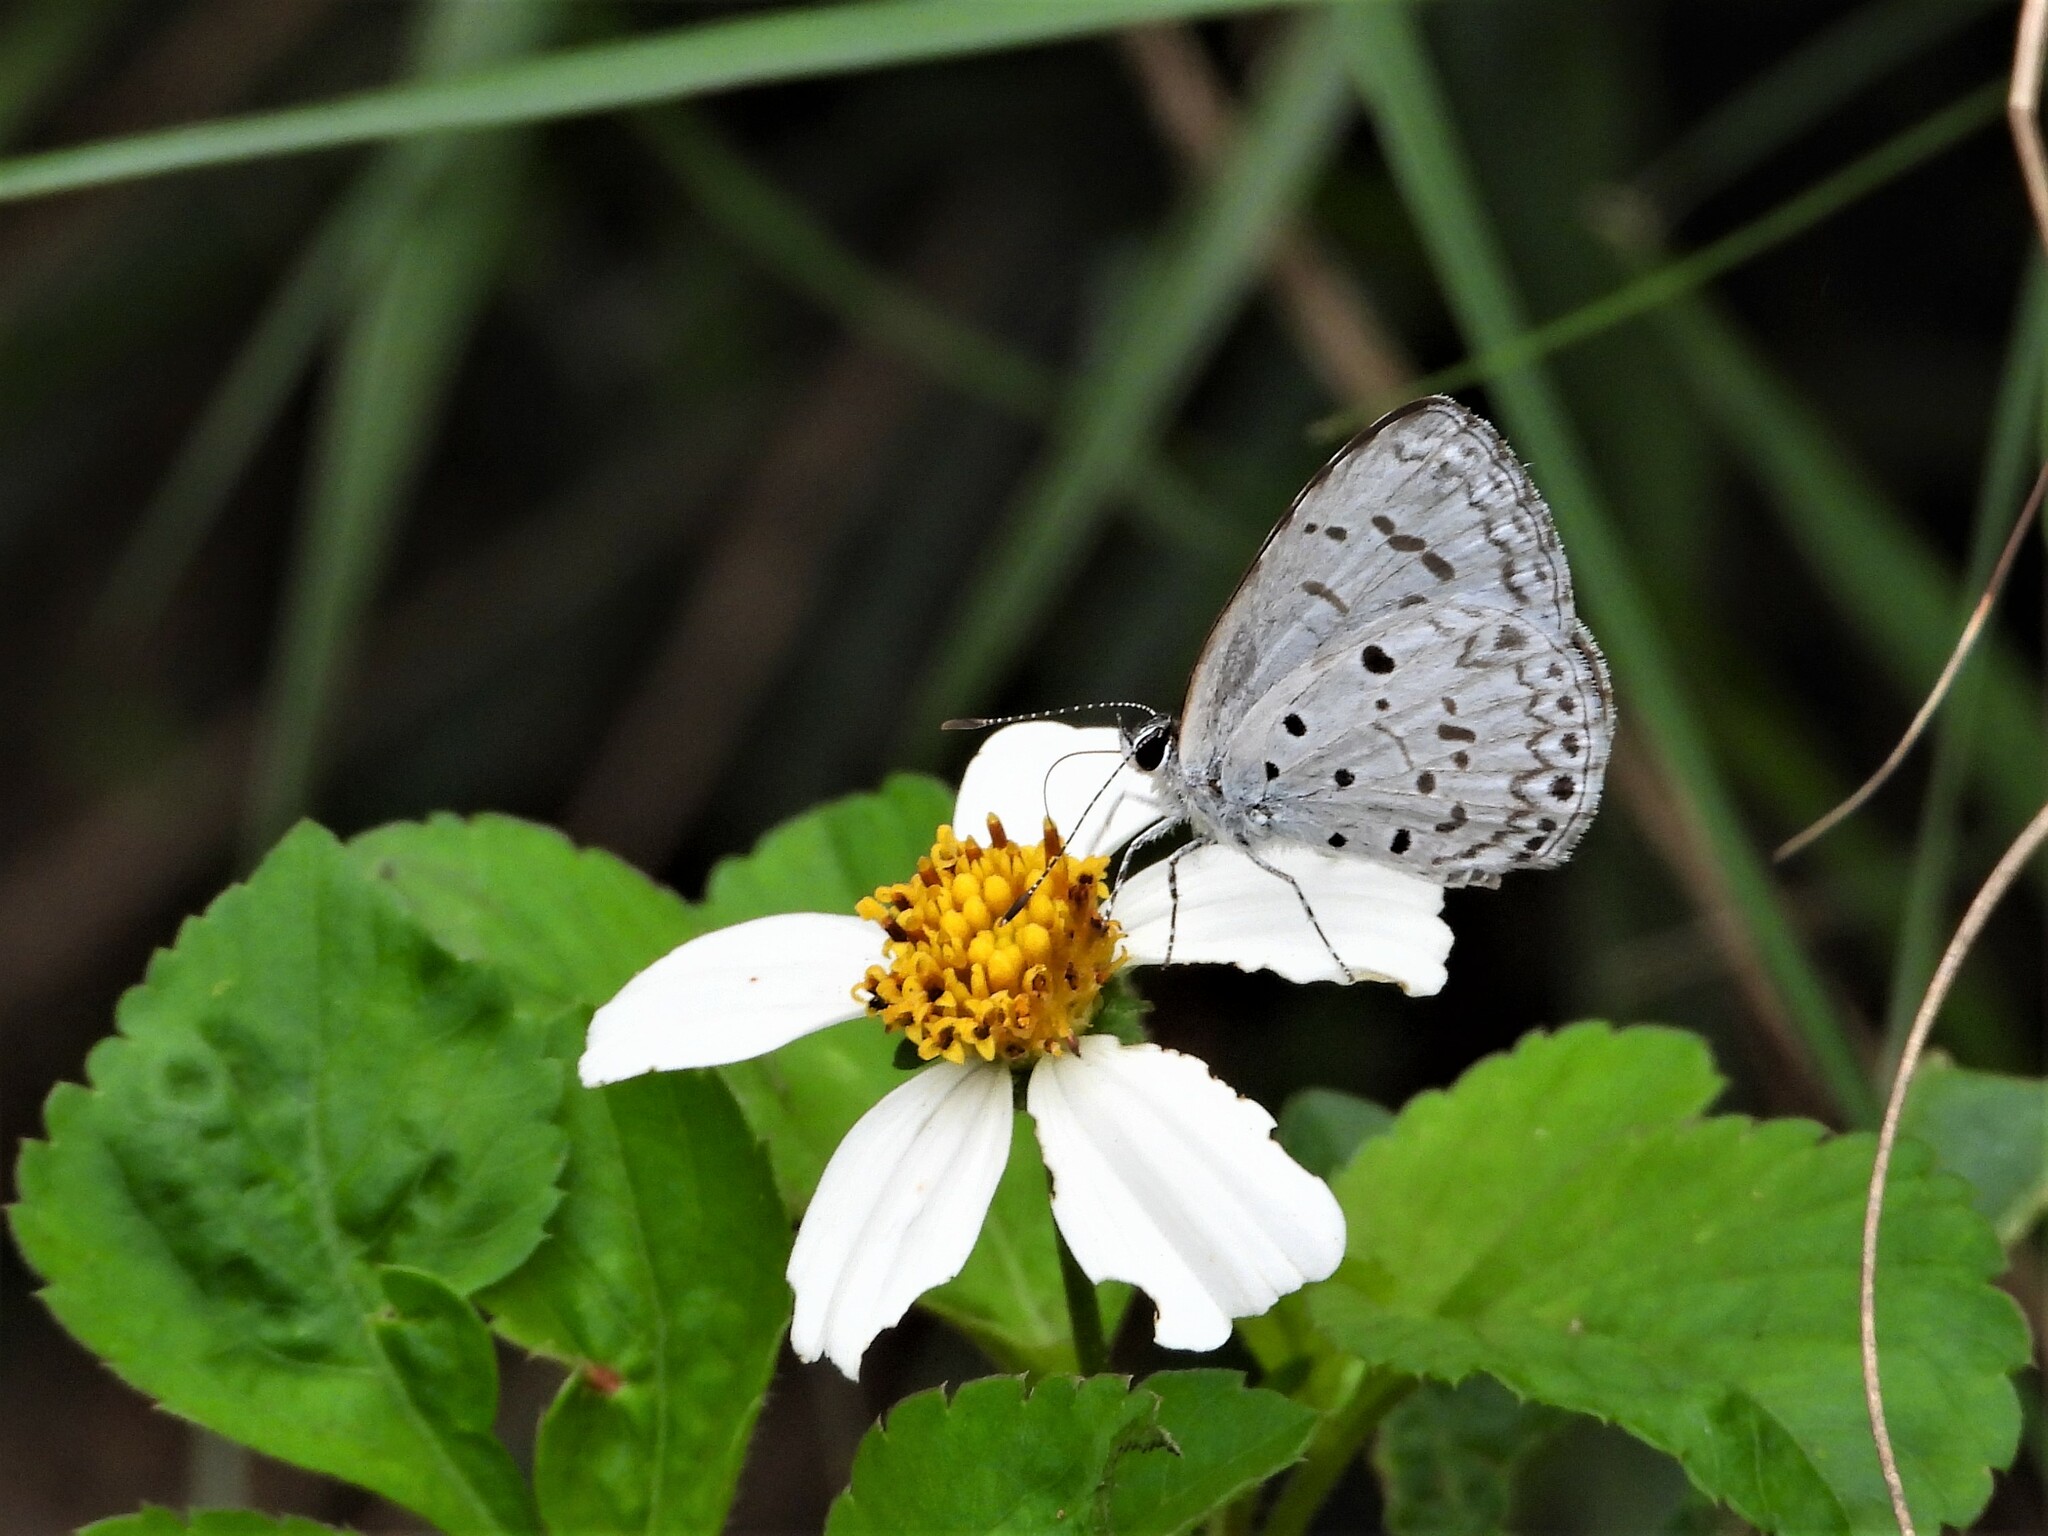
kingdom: Animalia
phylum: Arthropoda
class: Insecta
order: Lepidoptera
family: Lycaenidae
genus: Acytolepis
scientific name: Acytolepis puspa
